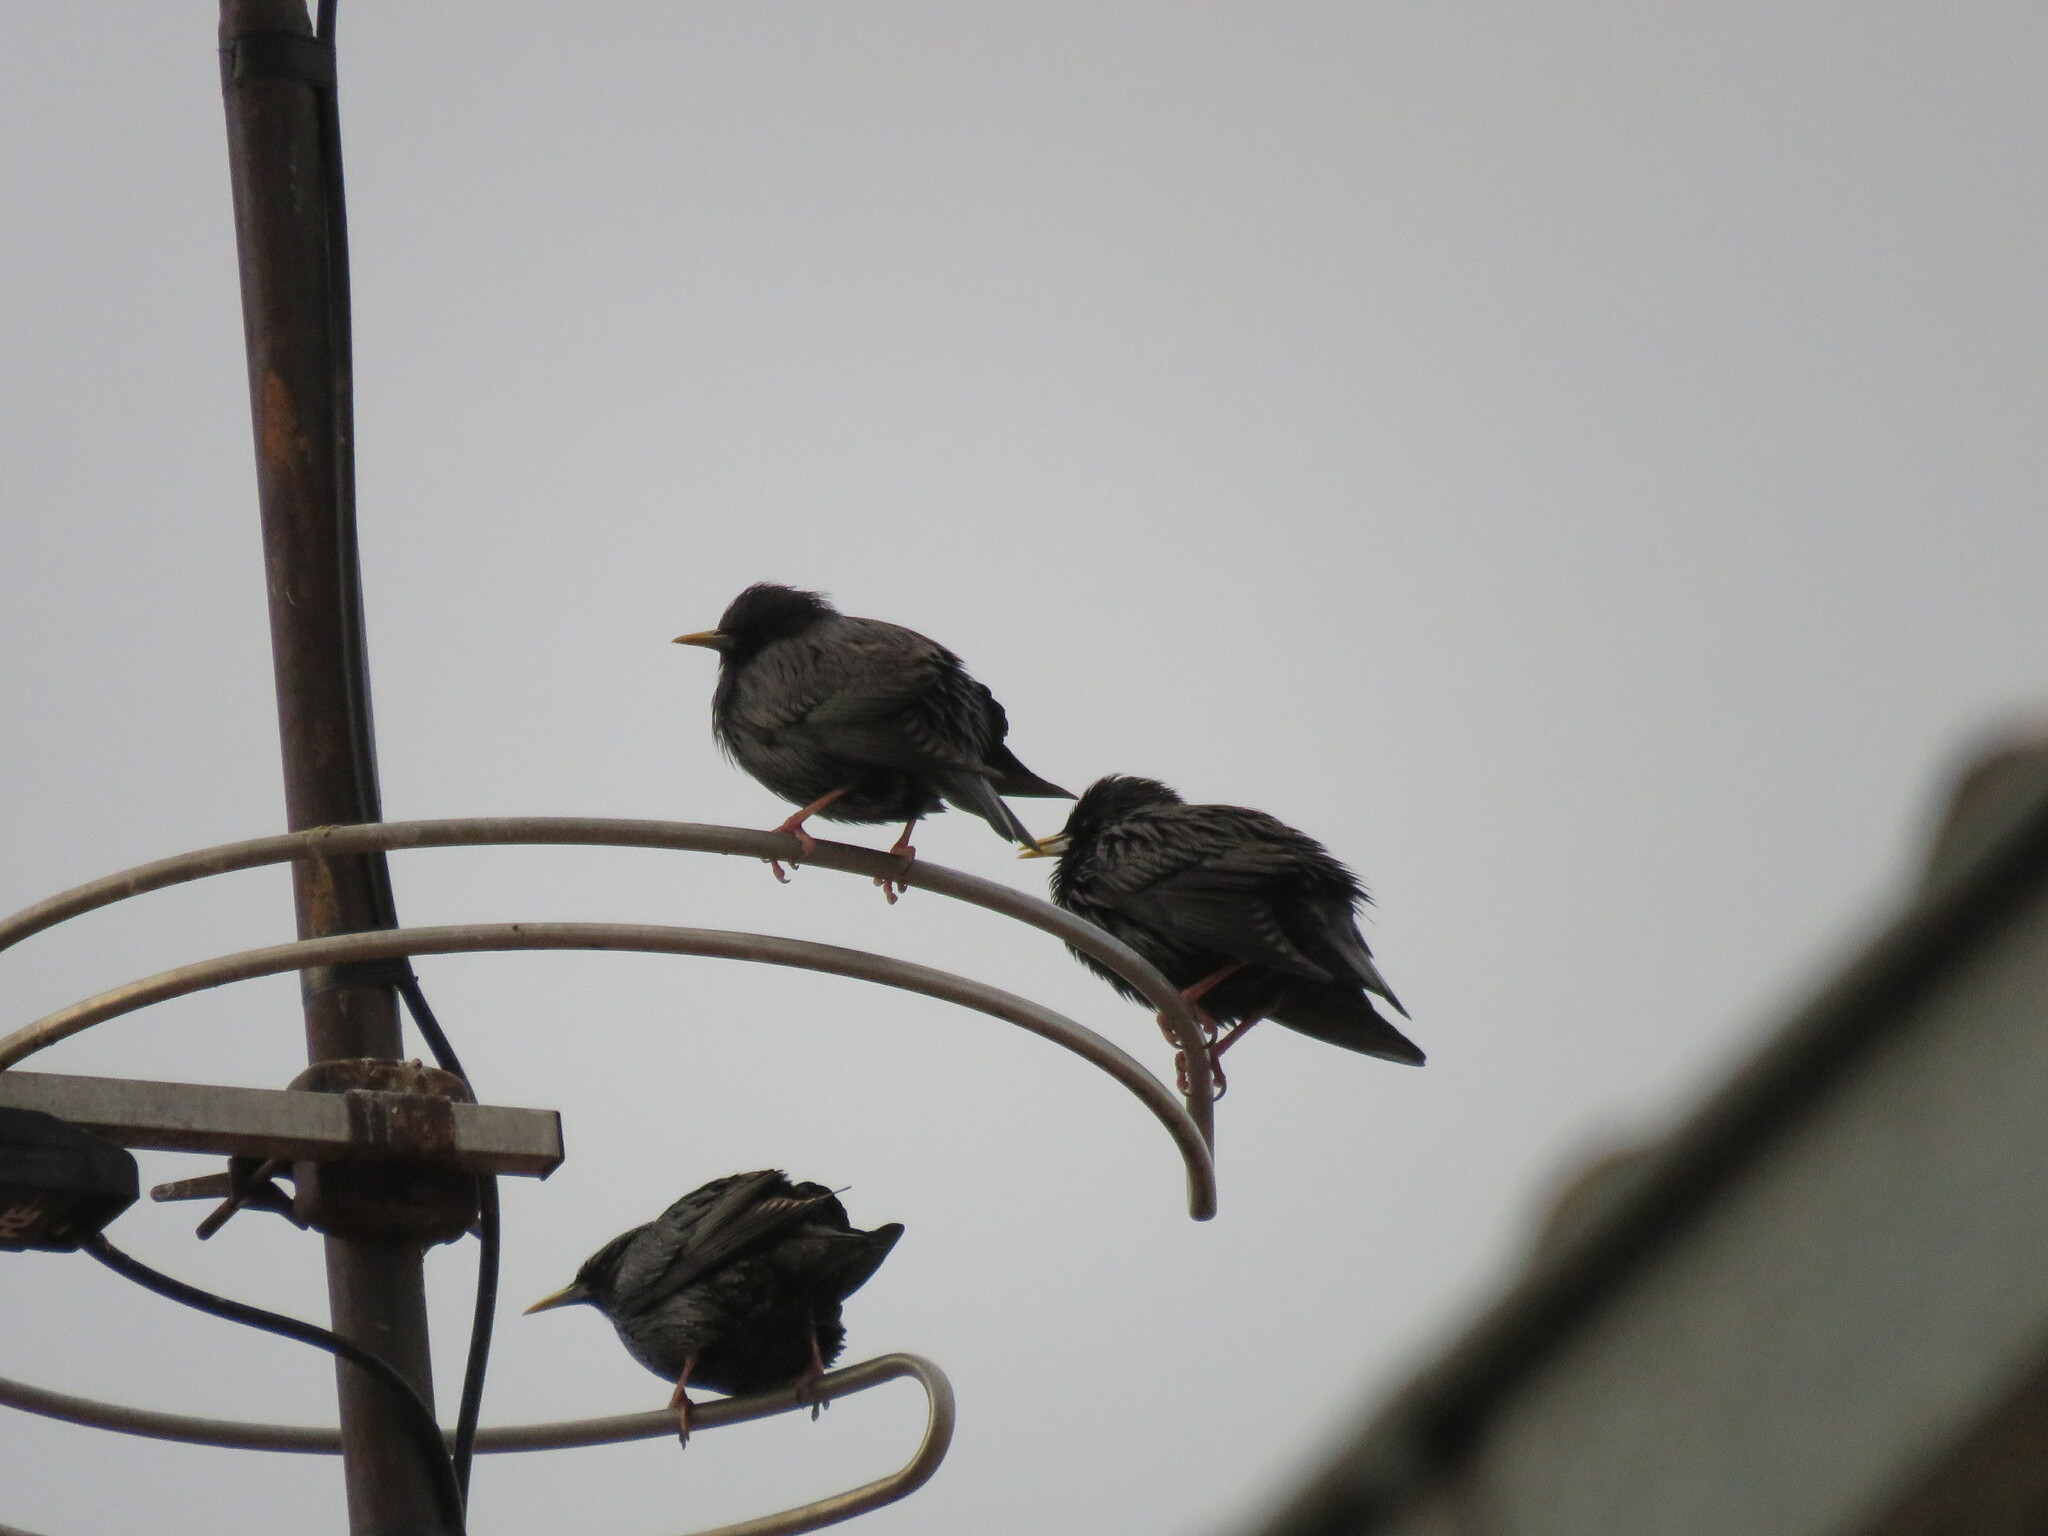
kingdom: Animalia
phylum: Chordata
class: Aves
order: Passeriformes
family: Sturnidae
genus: Sturnus
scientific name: Sturnus unicolor
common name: Spotless starling
